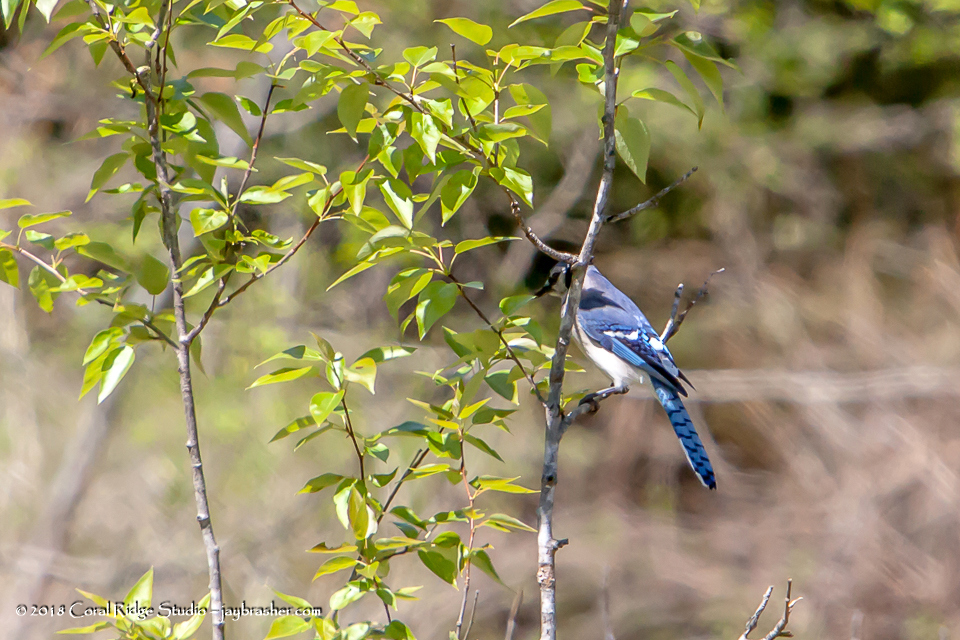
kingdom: Animalia
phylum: Chordata
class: Aves
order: Passeriformes
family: Corvidae
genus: Cyanocitta
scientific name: Cyanocitta cristata
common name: Blue jay
